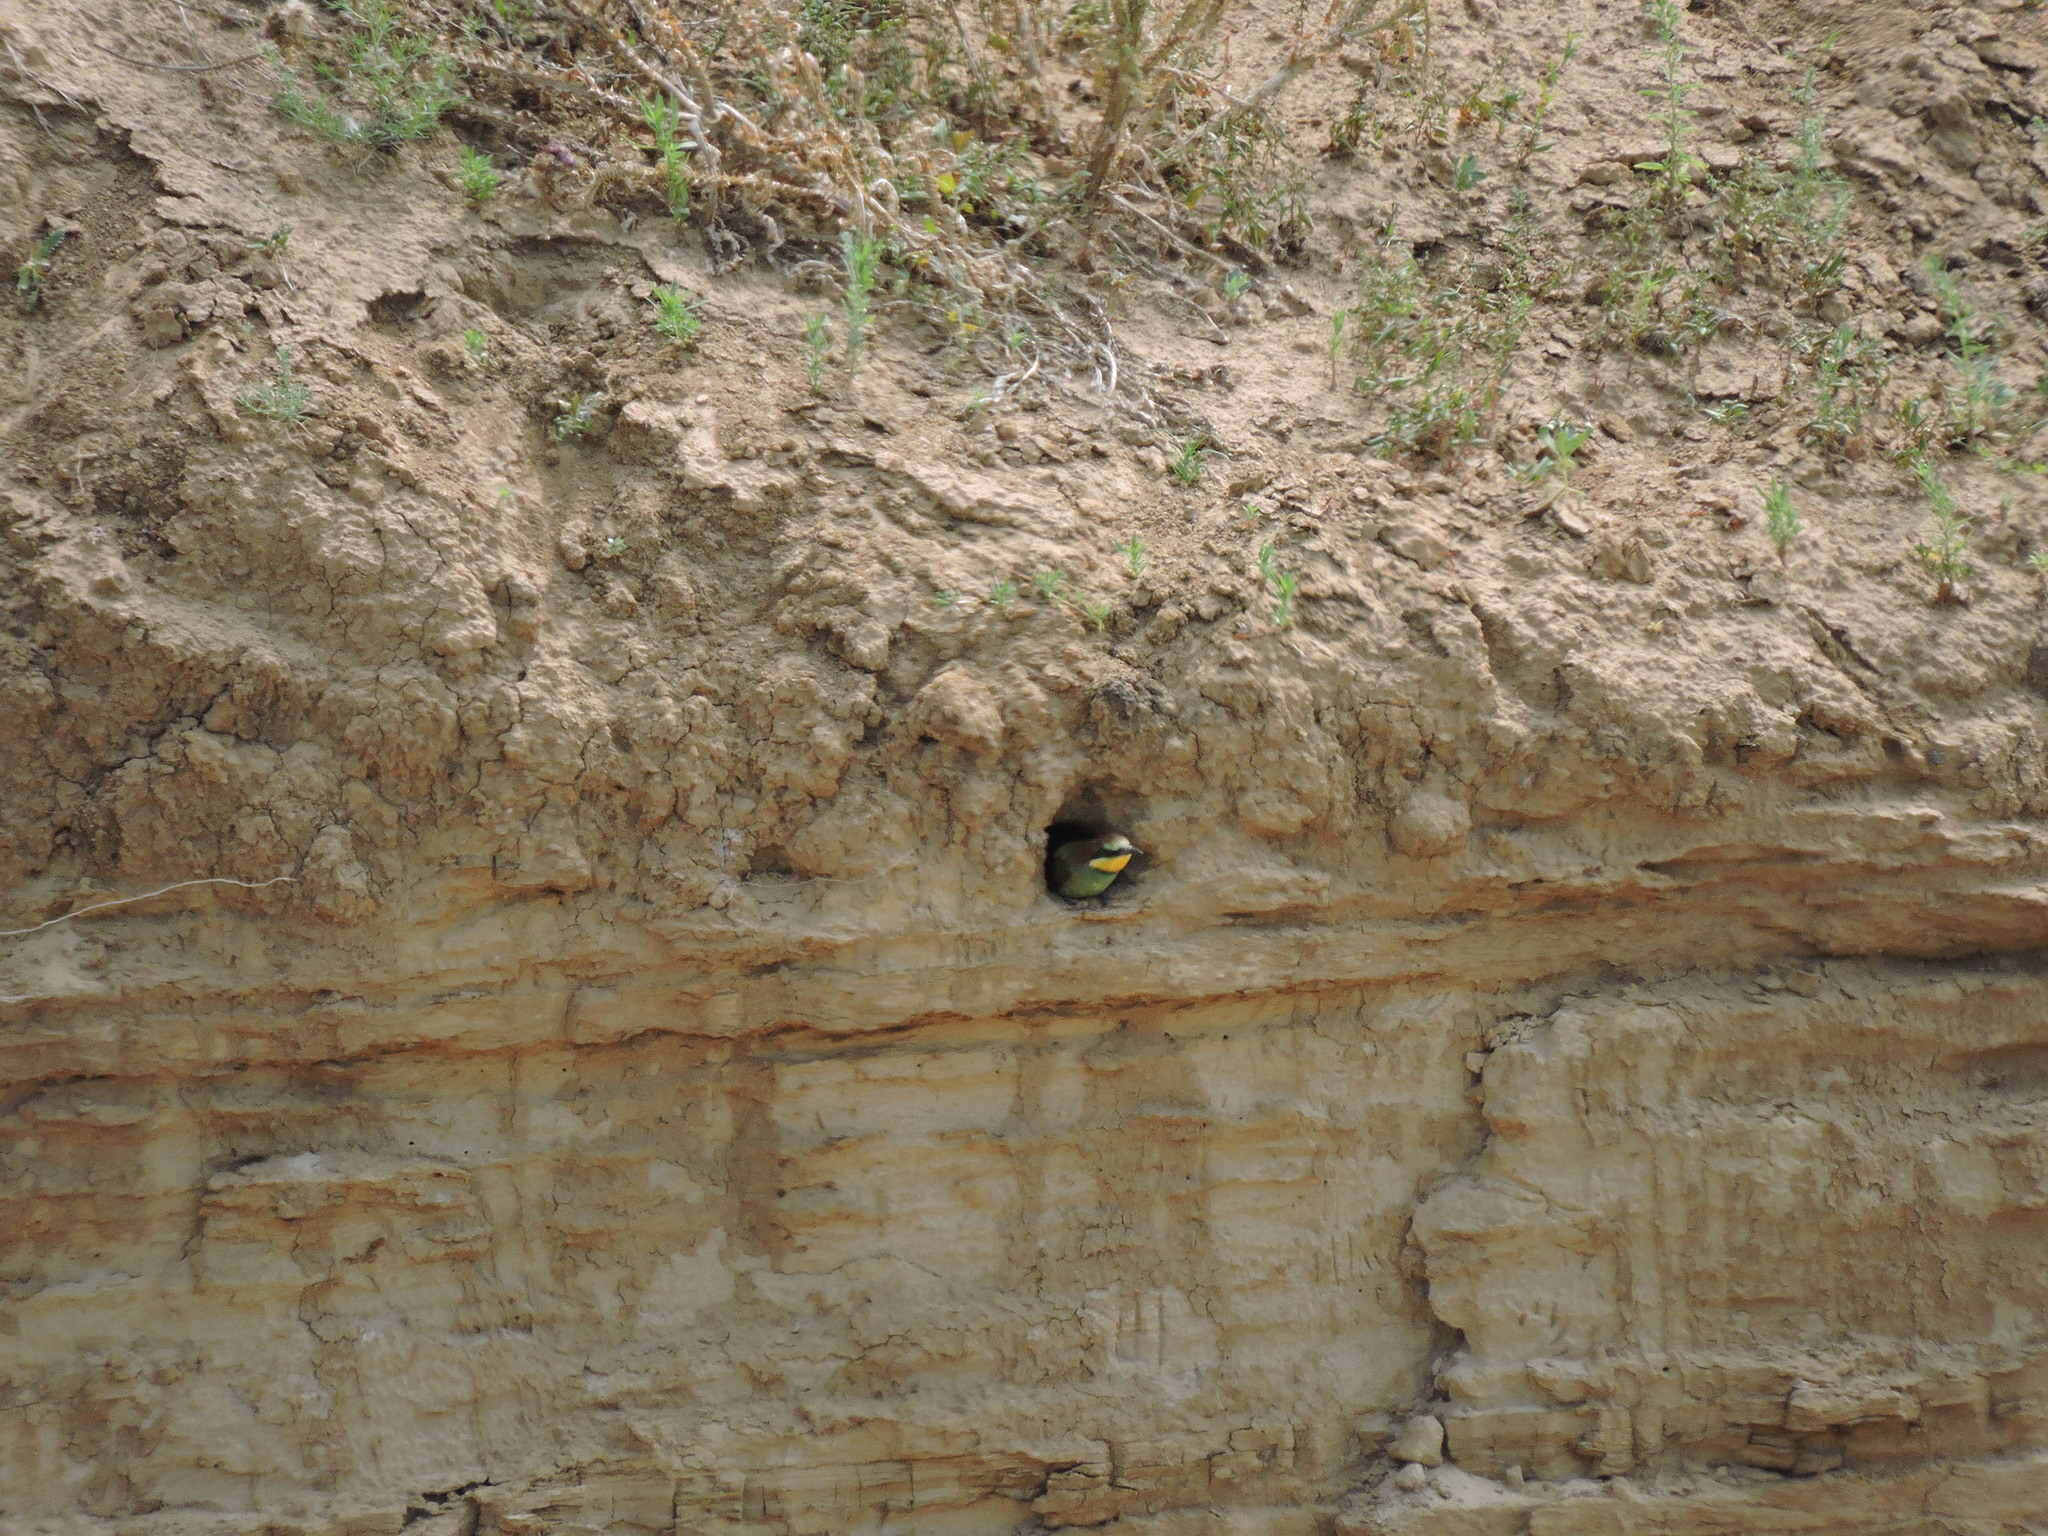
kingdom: Animalia
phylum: Chordata
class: Aves
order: Coraciiformes
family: Meropidae
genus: Merops
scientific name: Merops apiaster
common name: European bee-eater
